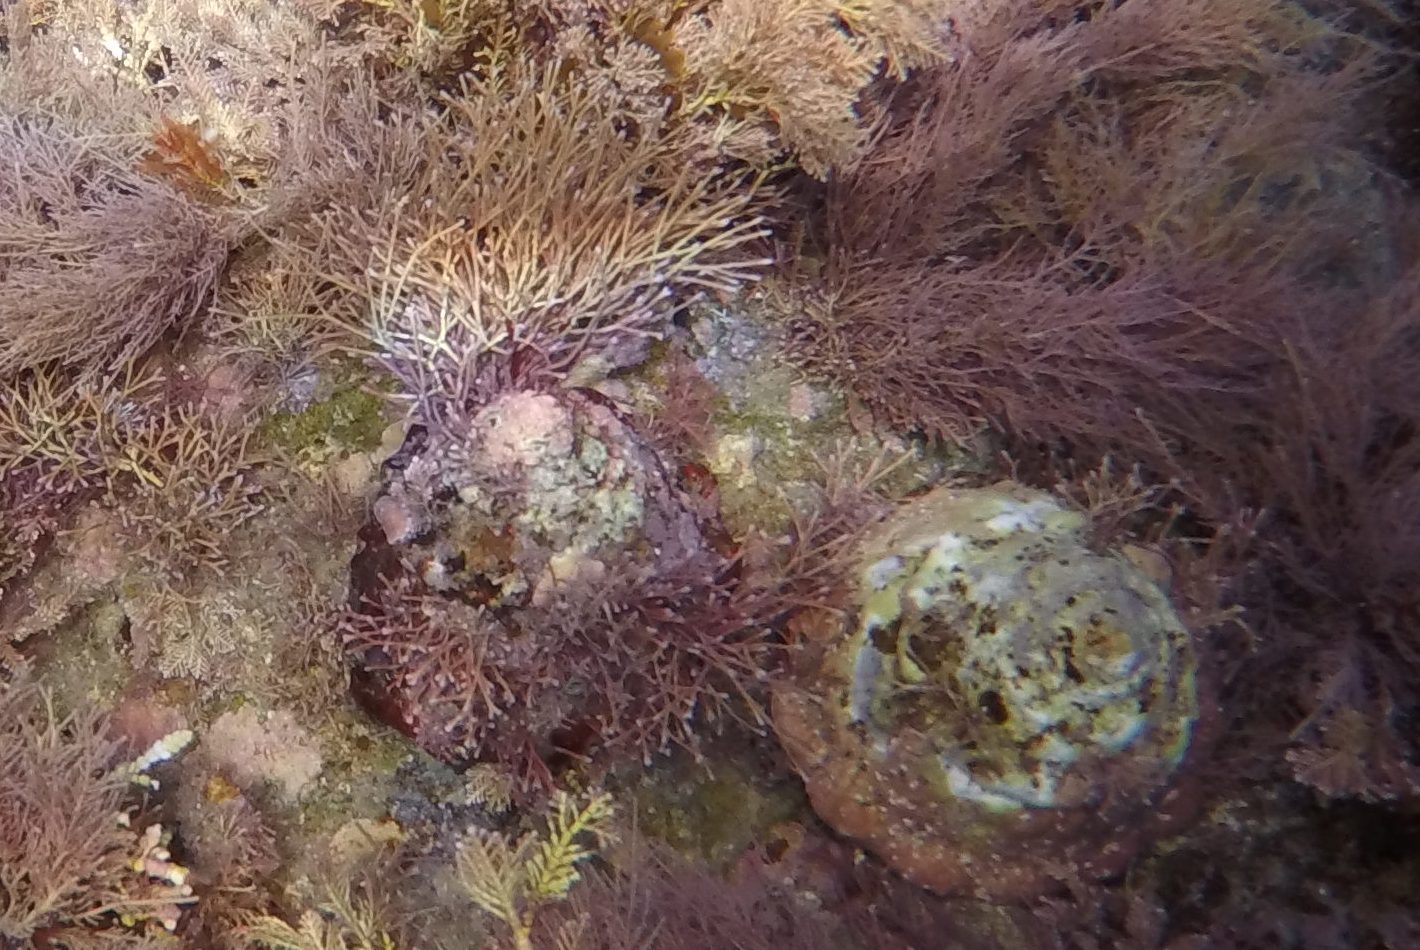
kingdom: Animalia
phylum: Mollusca
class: Gastropoda
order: Trochida
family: Turbinidae
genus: Megastraea
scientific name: Megastraea undosa
